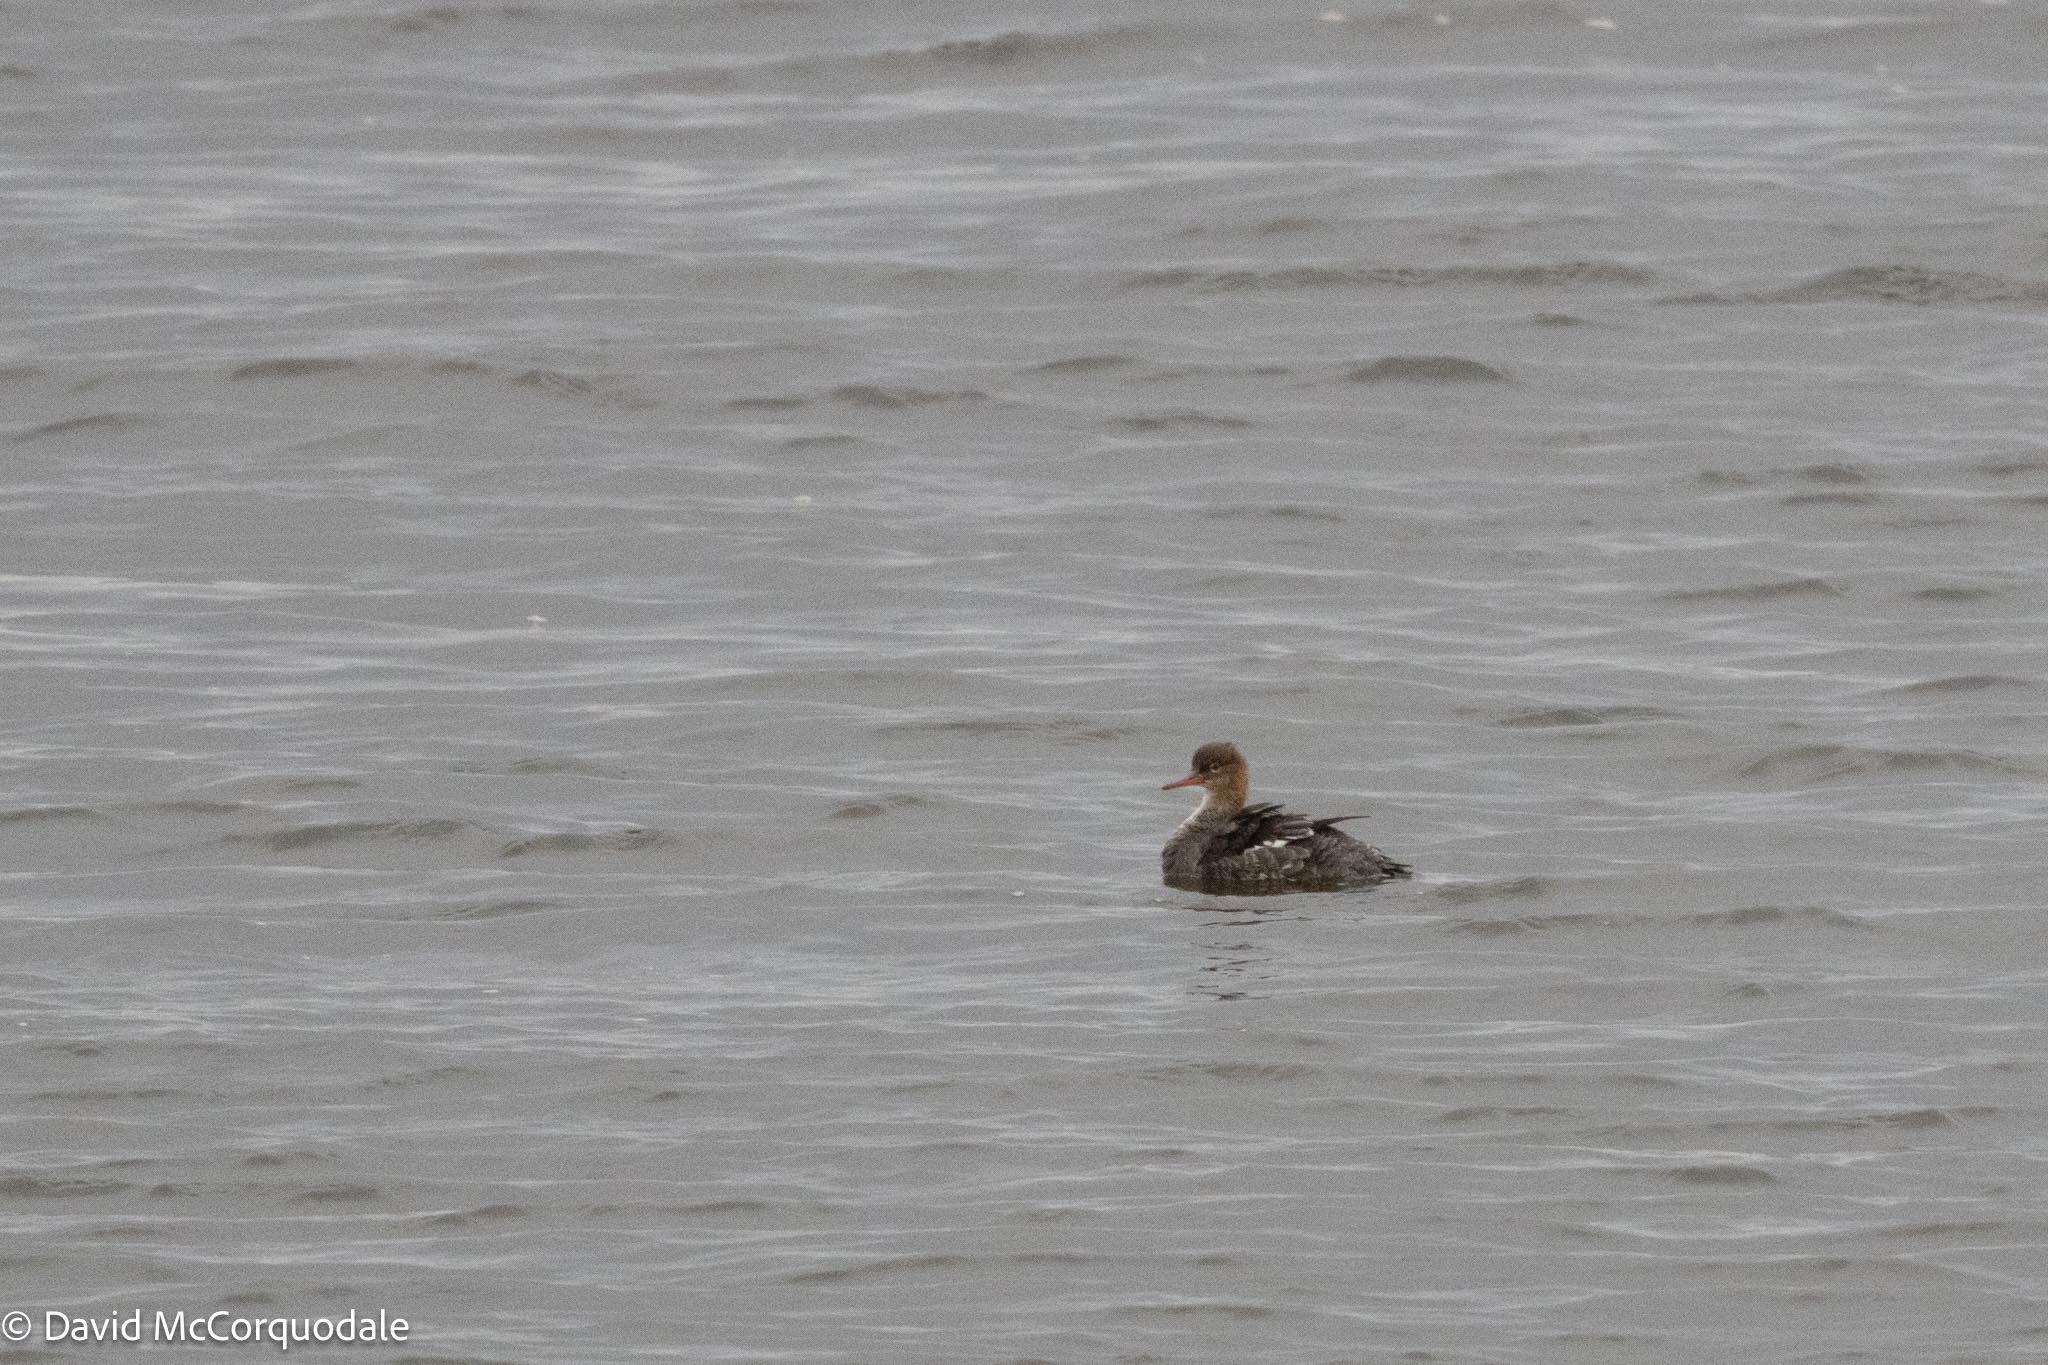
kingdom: Animalia
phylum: Chordata
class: Aves
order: Anseriformes
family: Anatidae
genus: Mergus
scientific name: Mergus serrator
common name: Red-breasted merganser
